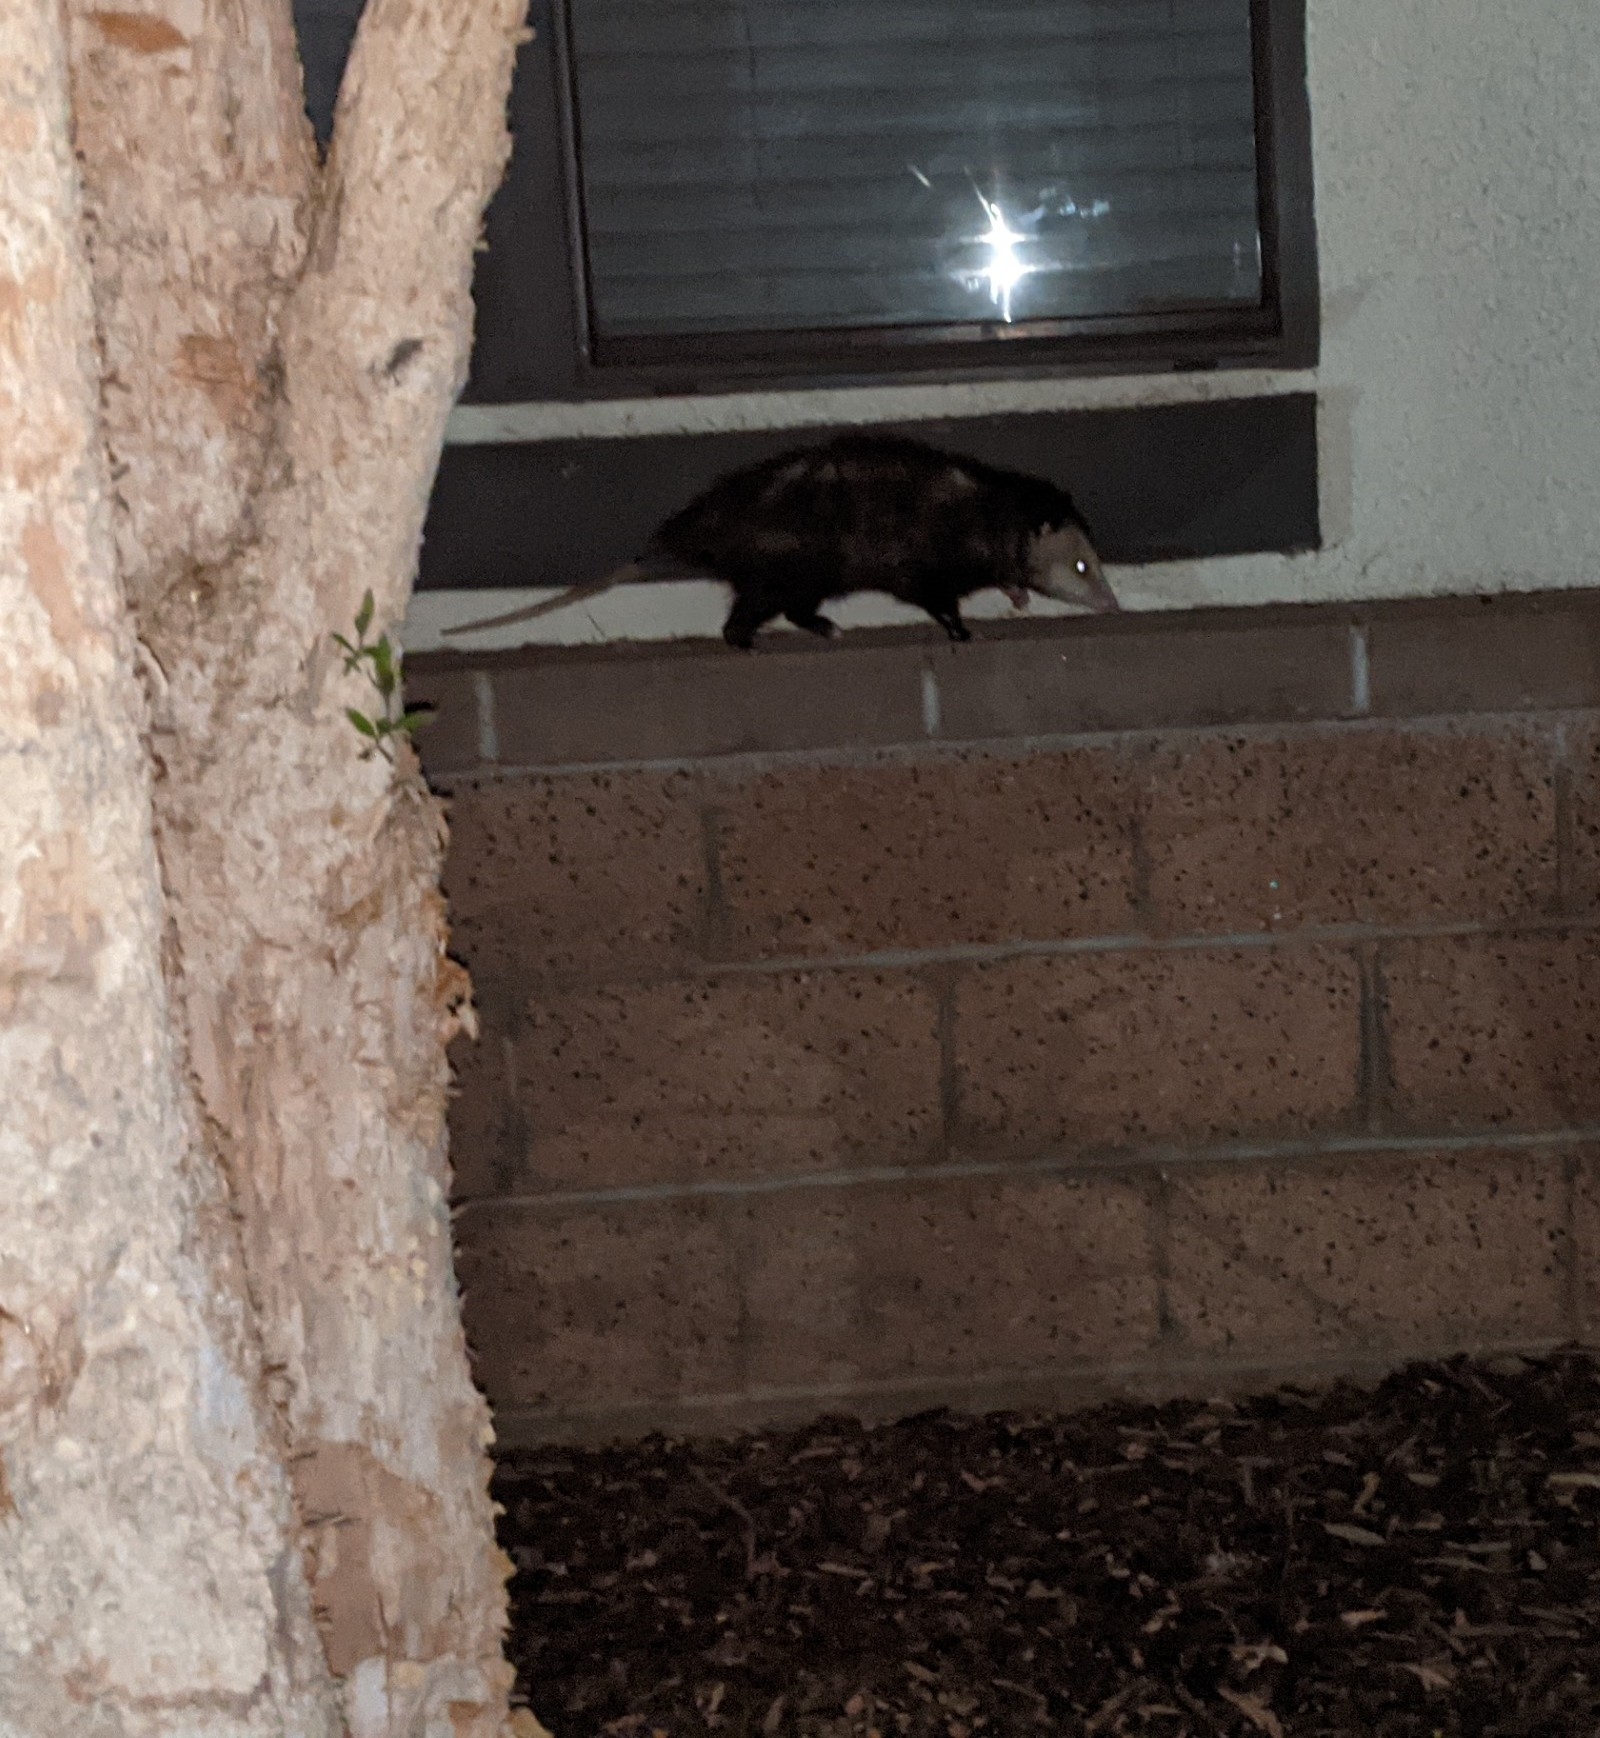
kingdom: Animalia
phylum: Chordata
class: Mammalia
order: Didelphimorphia
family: Didelphidae
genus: Didelphis
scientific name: Didelphis virginiana
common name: Virginia opossum
